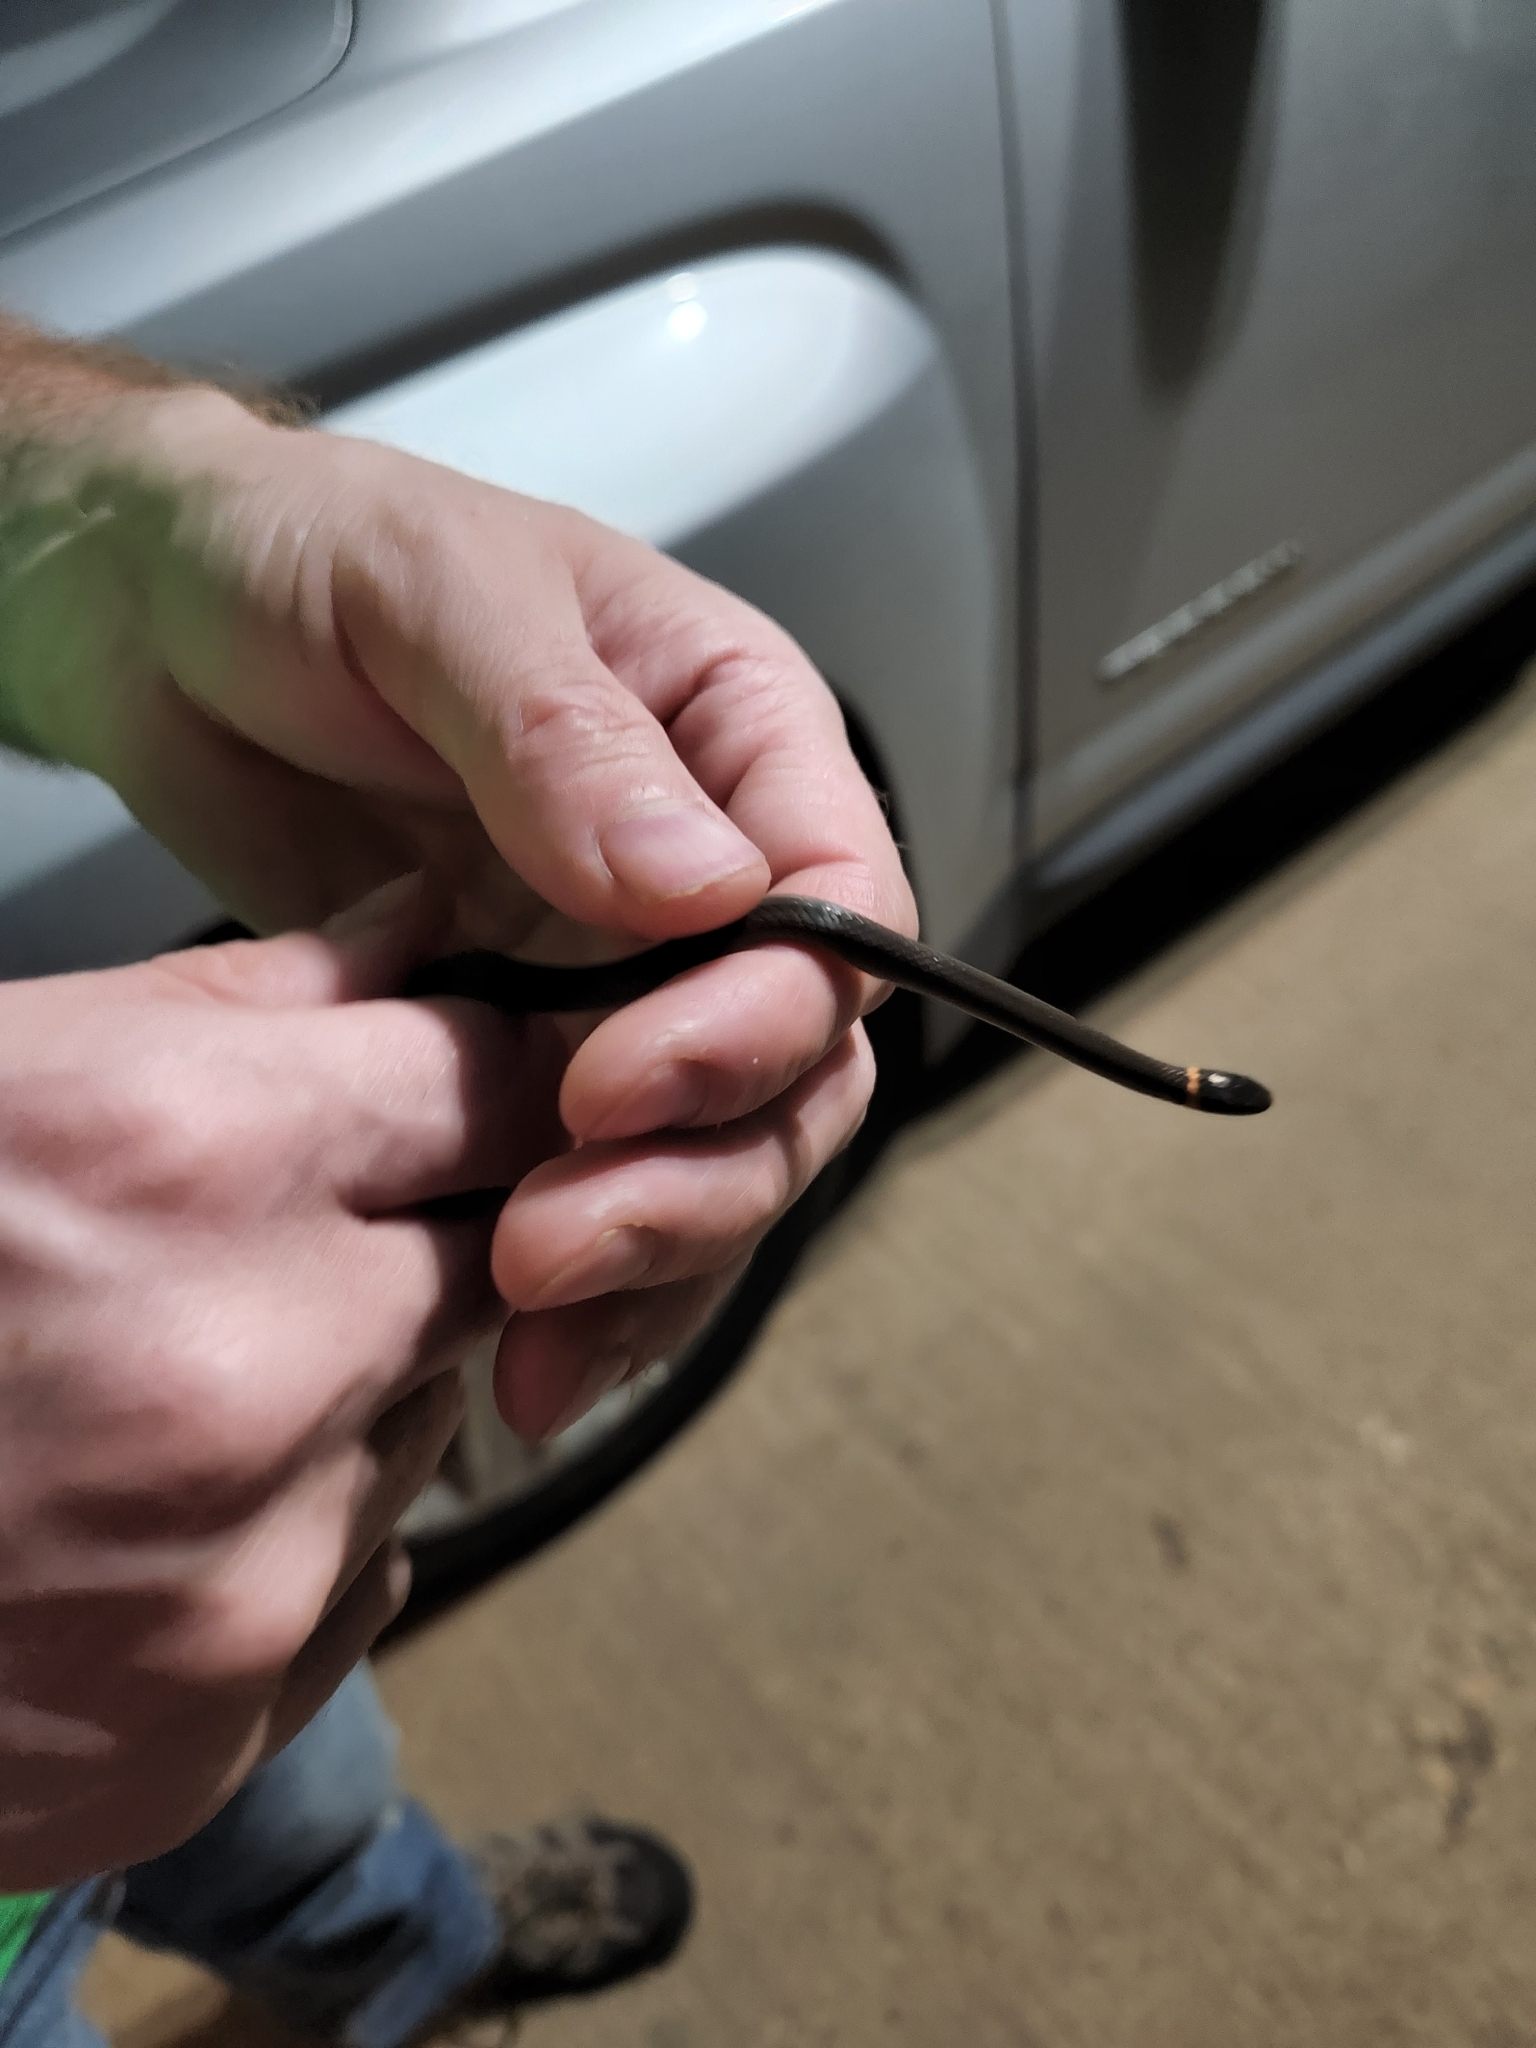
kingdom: Animalia
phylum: Chordata
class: Squamata
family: Colubridae
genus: Diadophis
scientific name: Diadophis punctatus
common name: Ringneck snake
